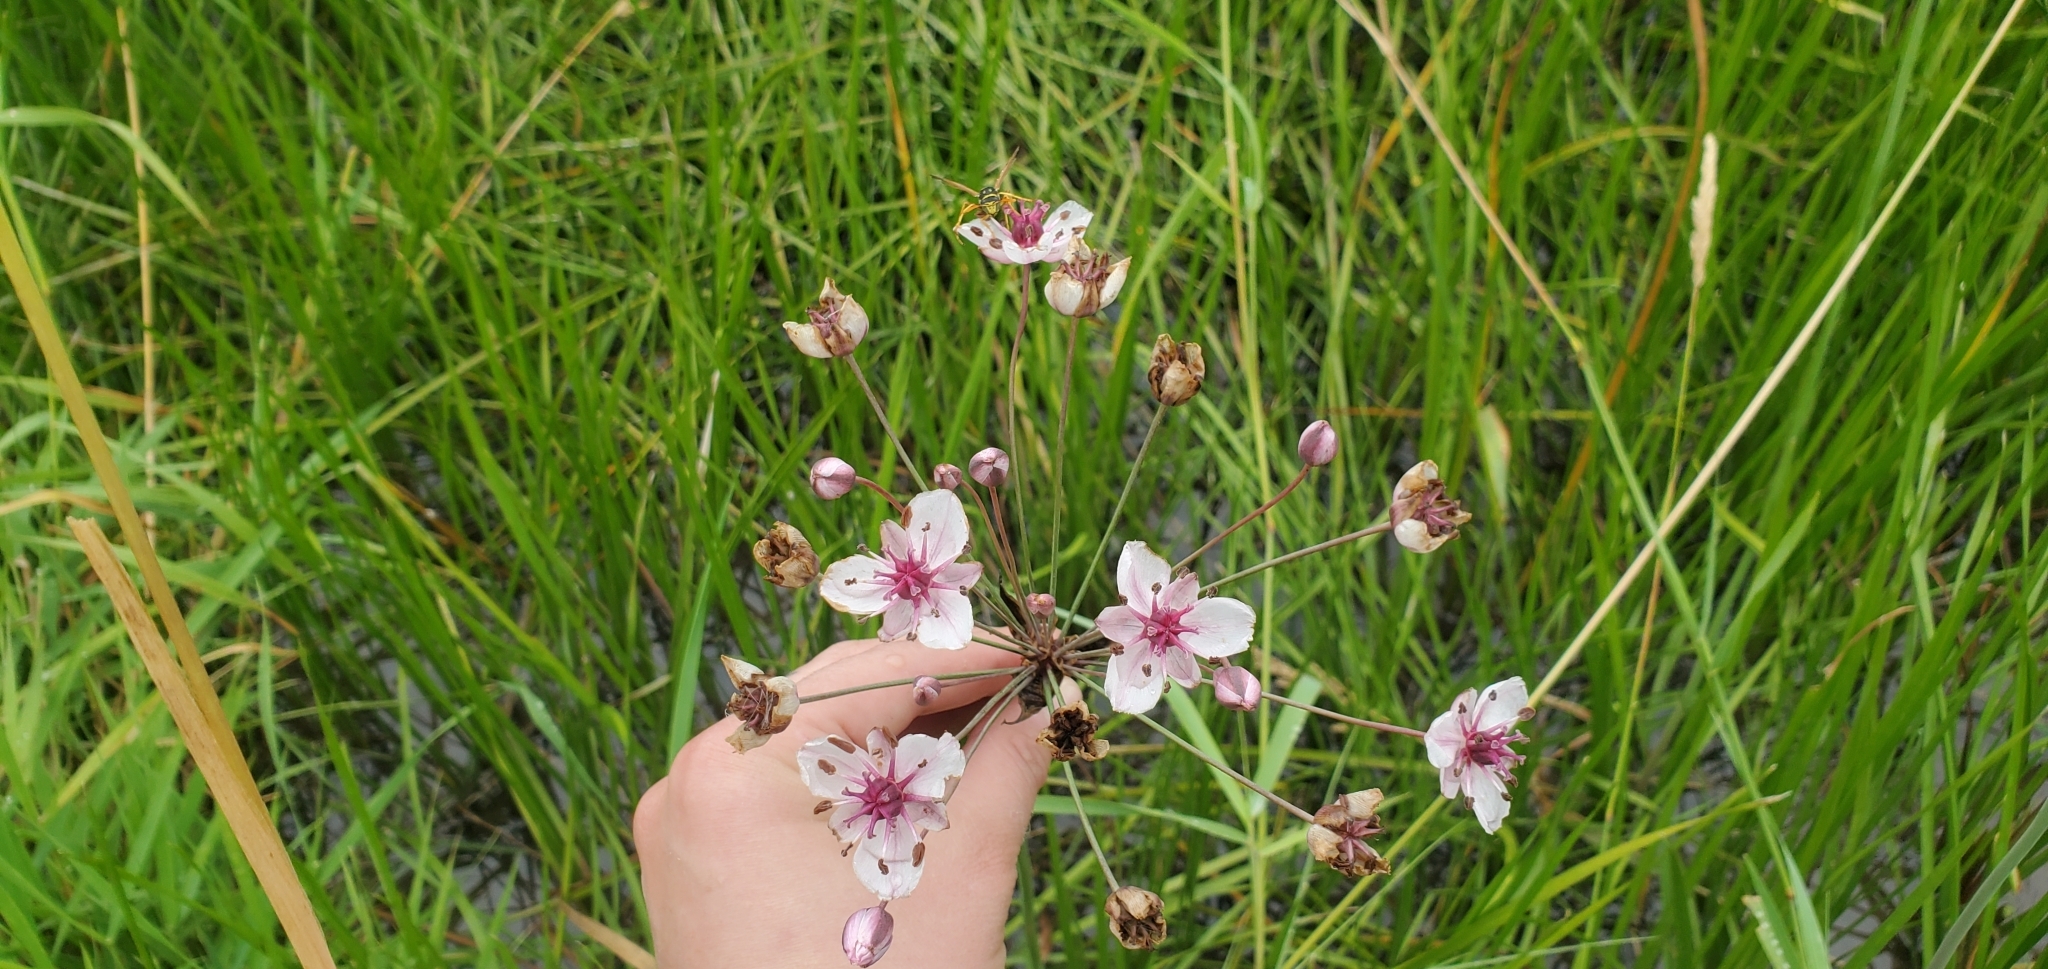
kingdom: Plantae
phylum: Tracheophyta
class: Liliopsida
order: Alismatales
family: Butomaceae
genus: Butomus
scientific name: Butomus umbellatus
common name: Flowering-rush
